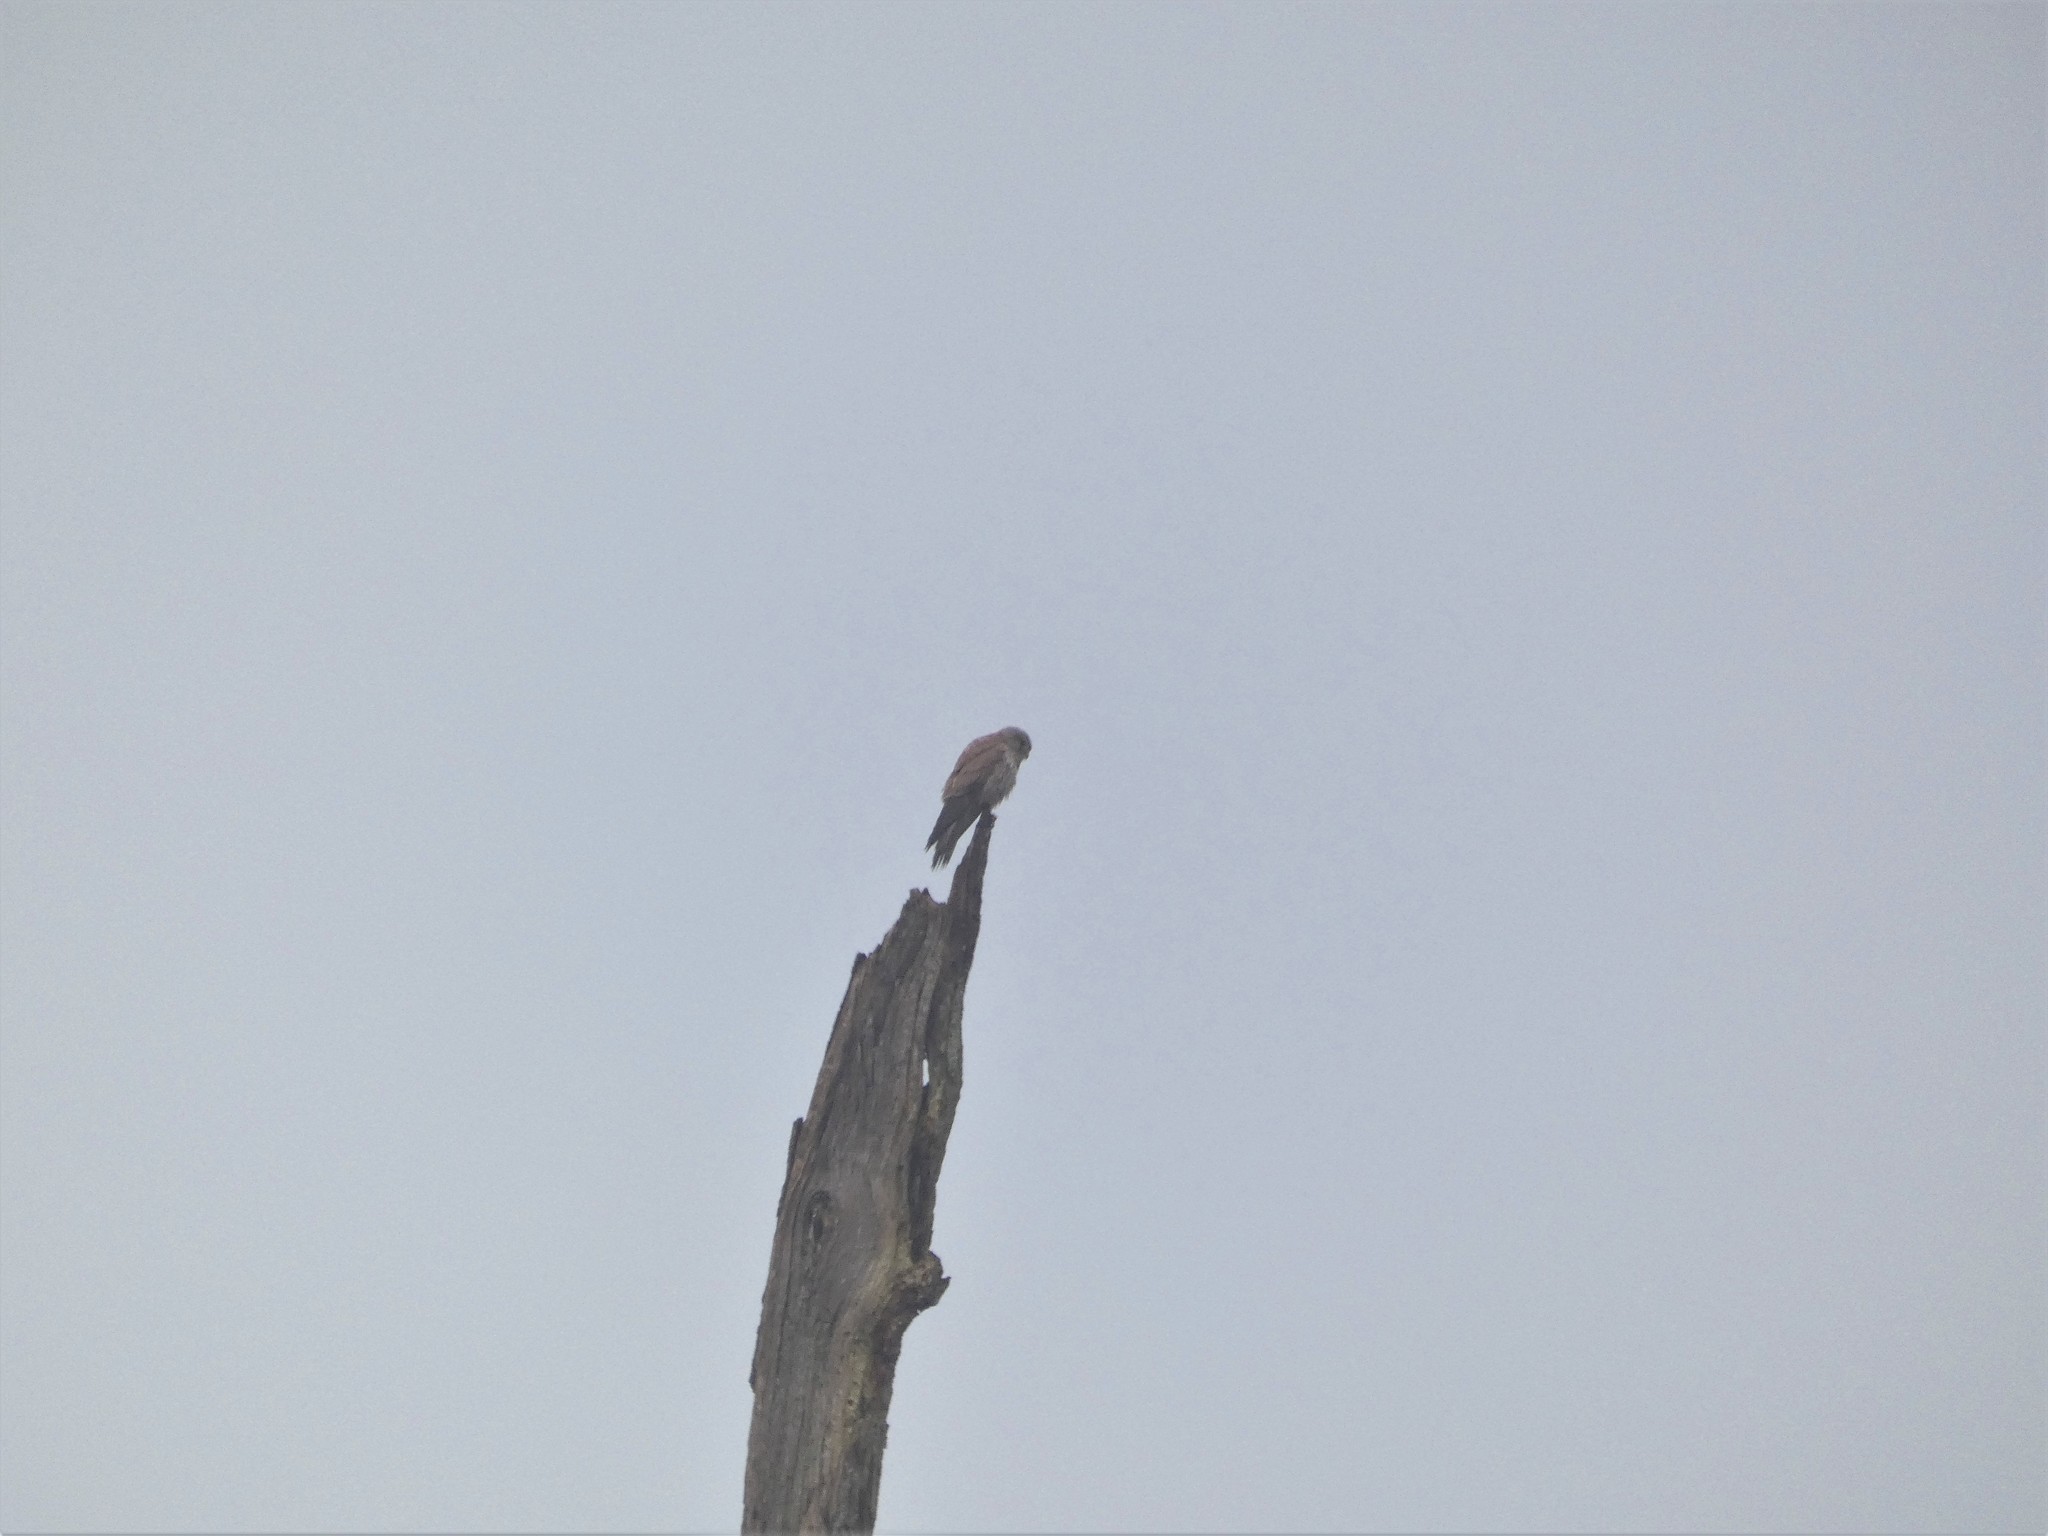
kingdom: Animalia
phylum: Chordata
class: Aves
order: Falconiformes
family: Falconidae
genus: Falco
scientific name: Falco tinnunculus
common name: Common kestrel
